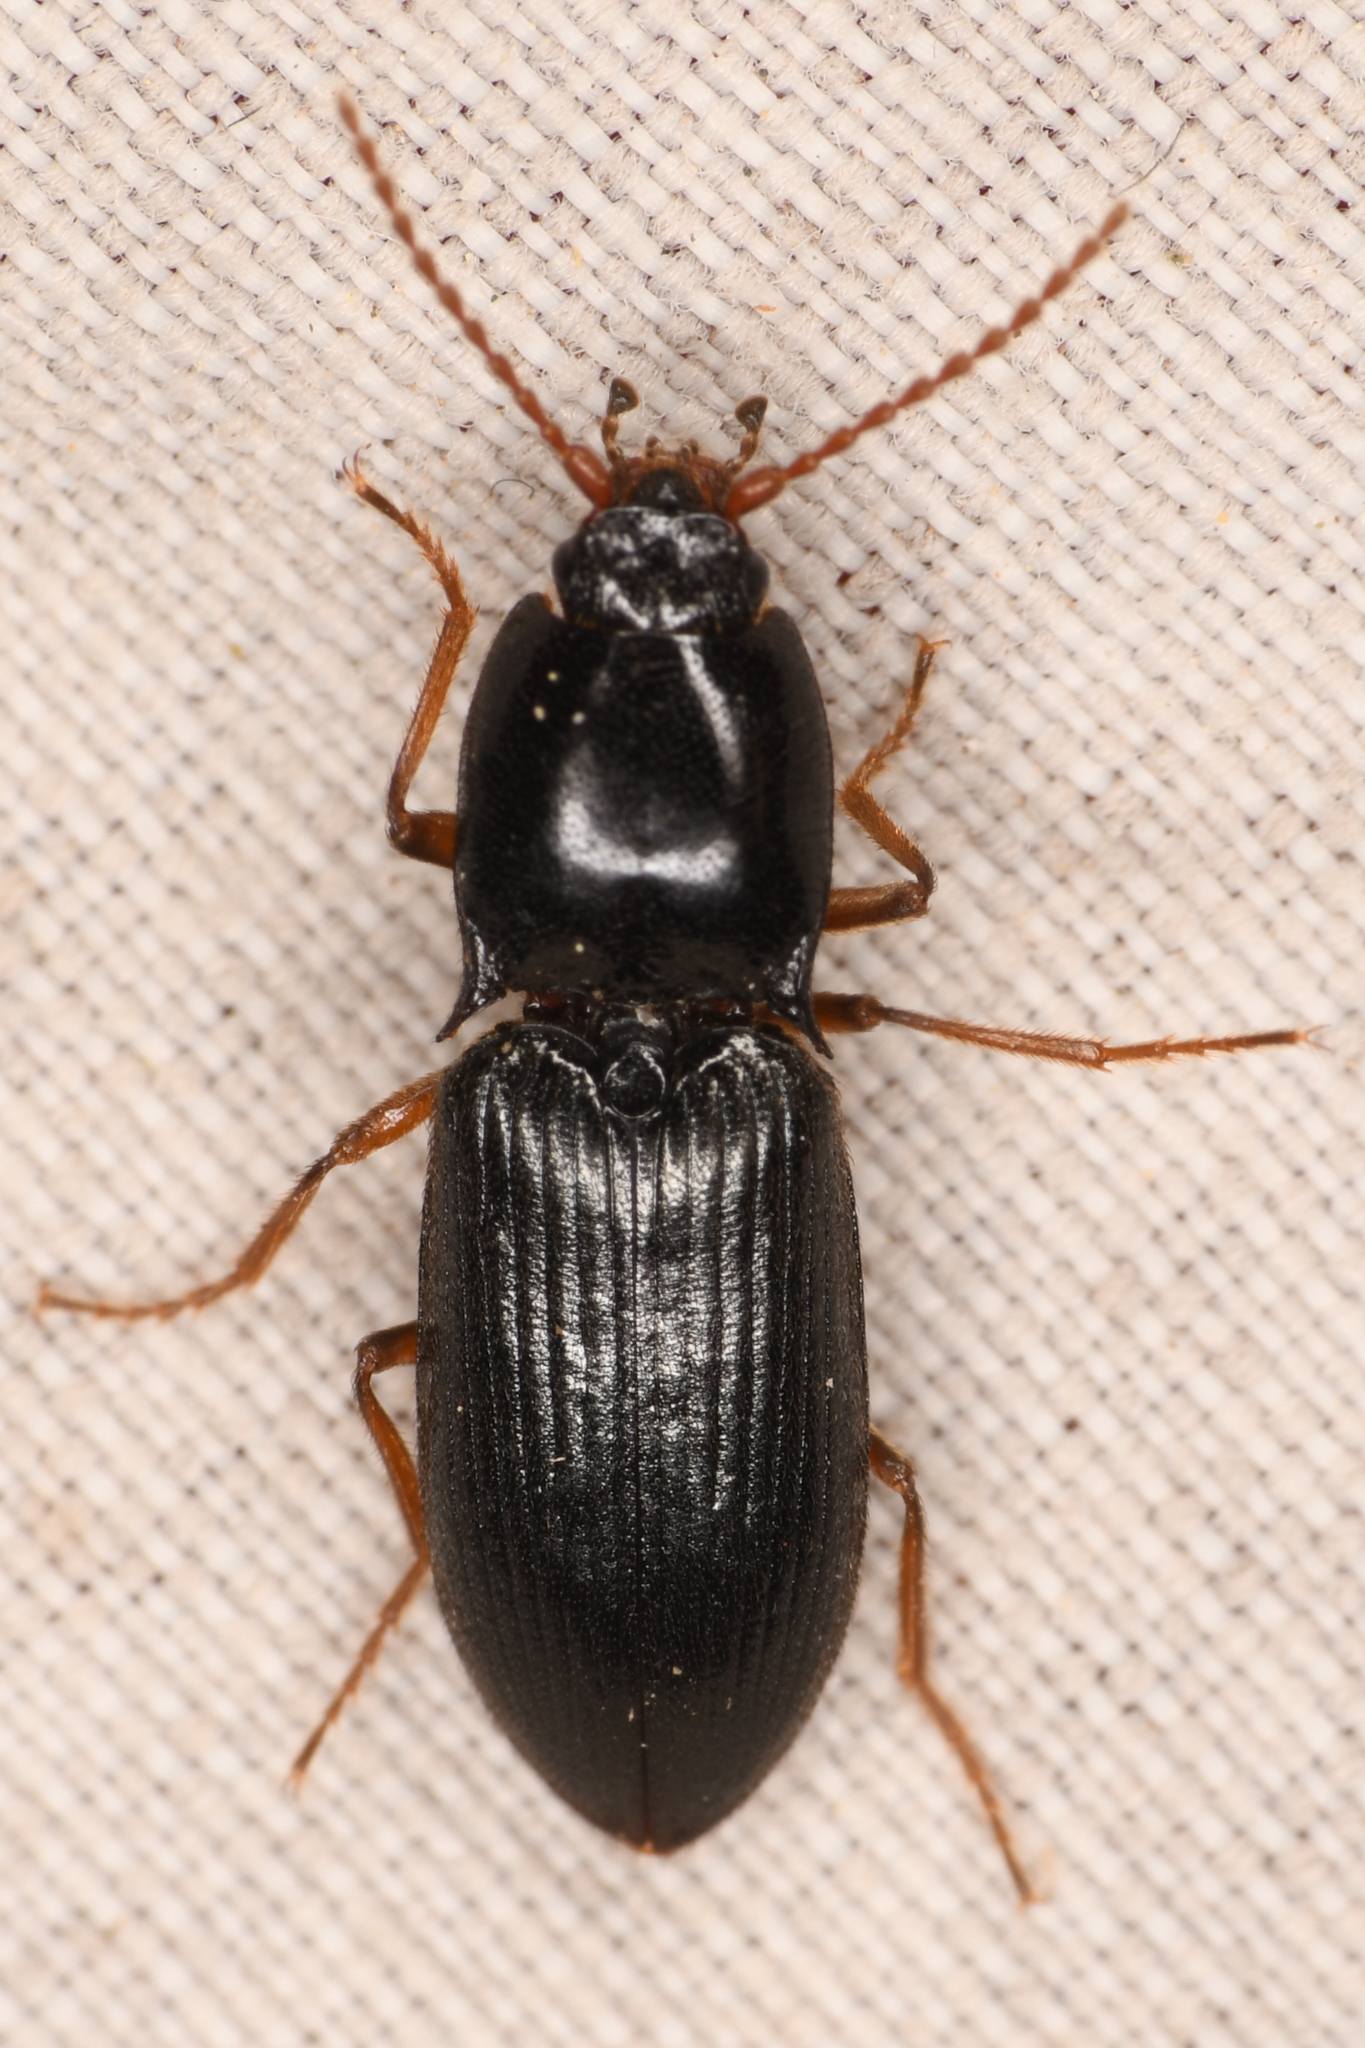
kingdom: Animalia
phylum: Arthropoda
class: Insecta
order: Coleoptera
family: Elateridae
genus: Margaiostus
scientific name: Margaiostus glacialis
